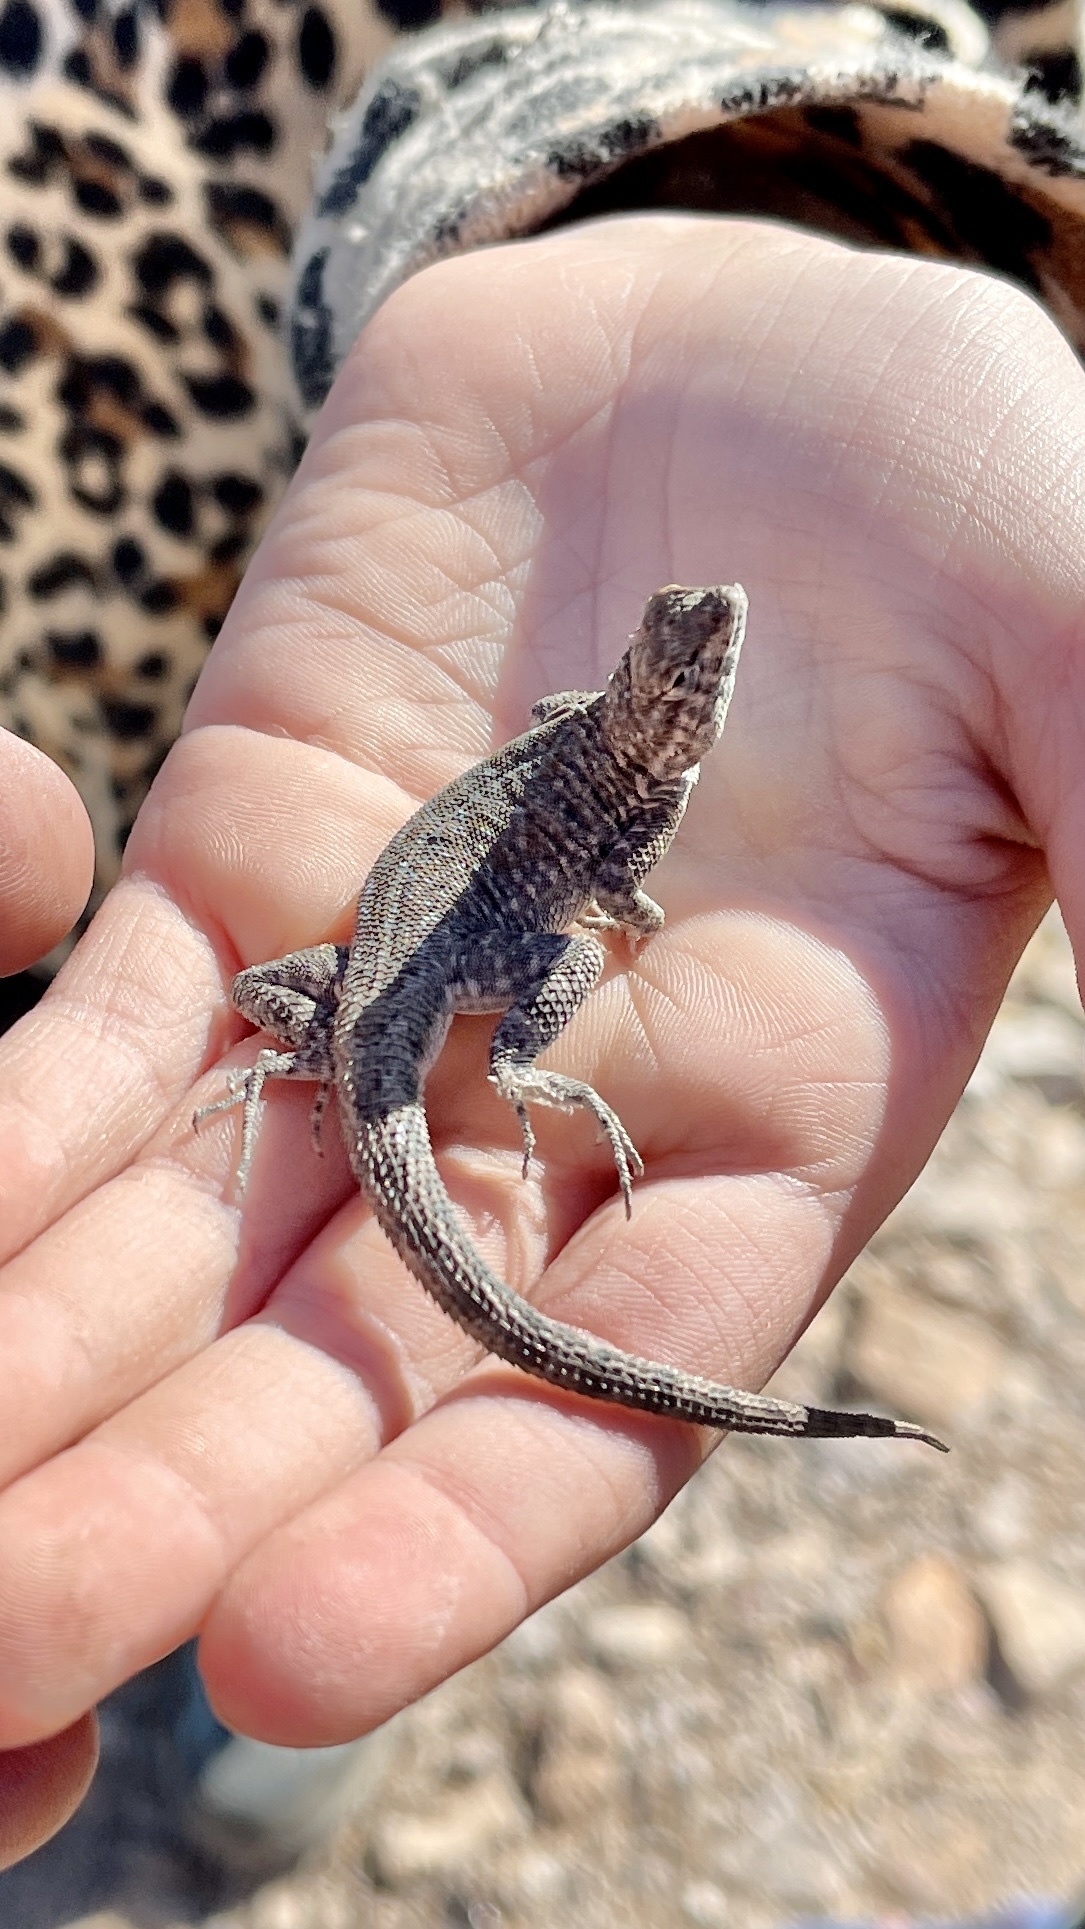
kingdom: Animalia
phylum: Chordata
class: Squamata
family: Phrynosomatidae
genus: Uta
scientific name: Uta stansburiana
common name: Side-blotched lizard
